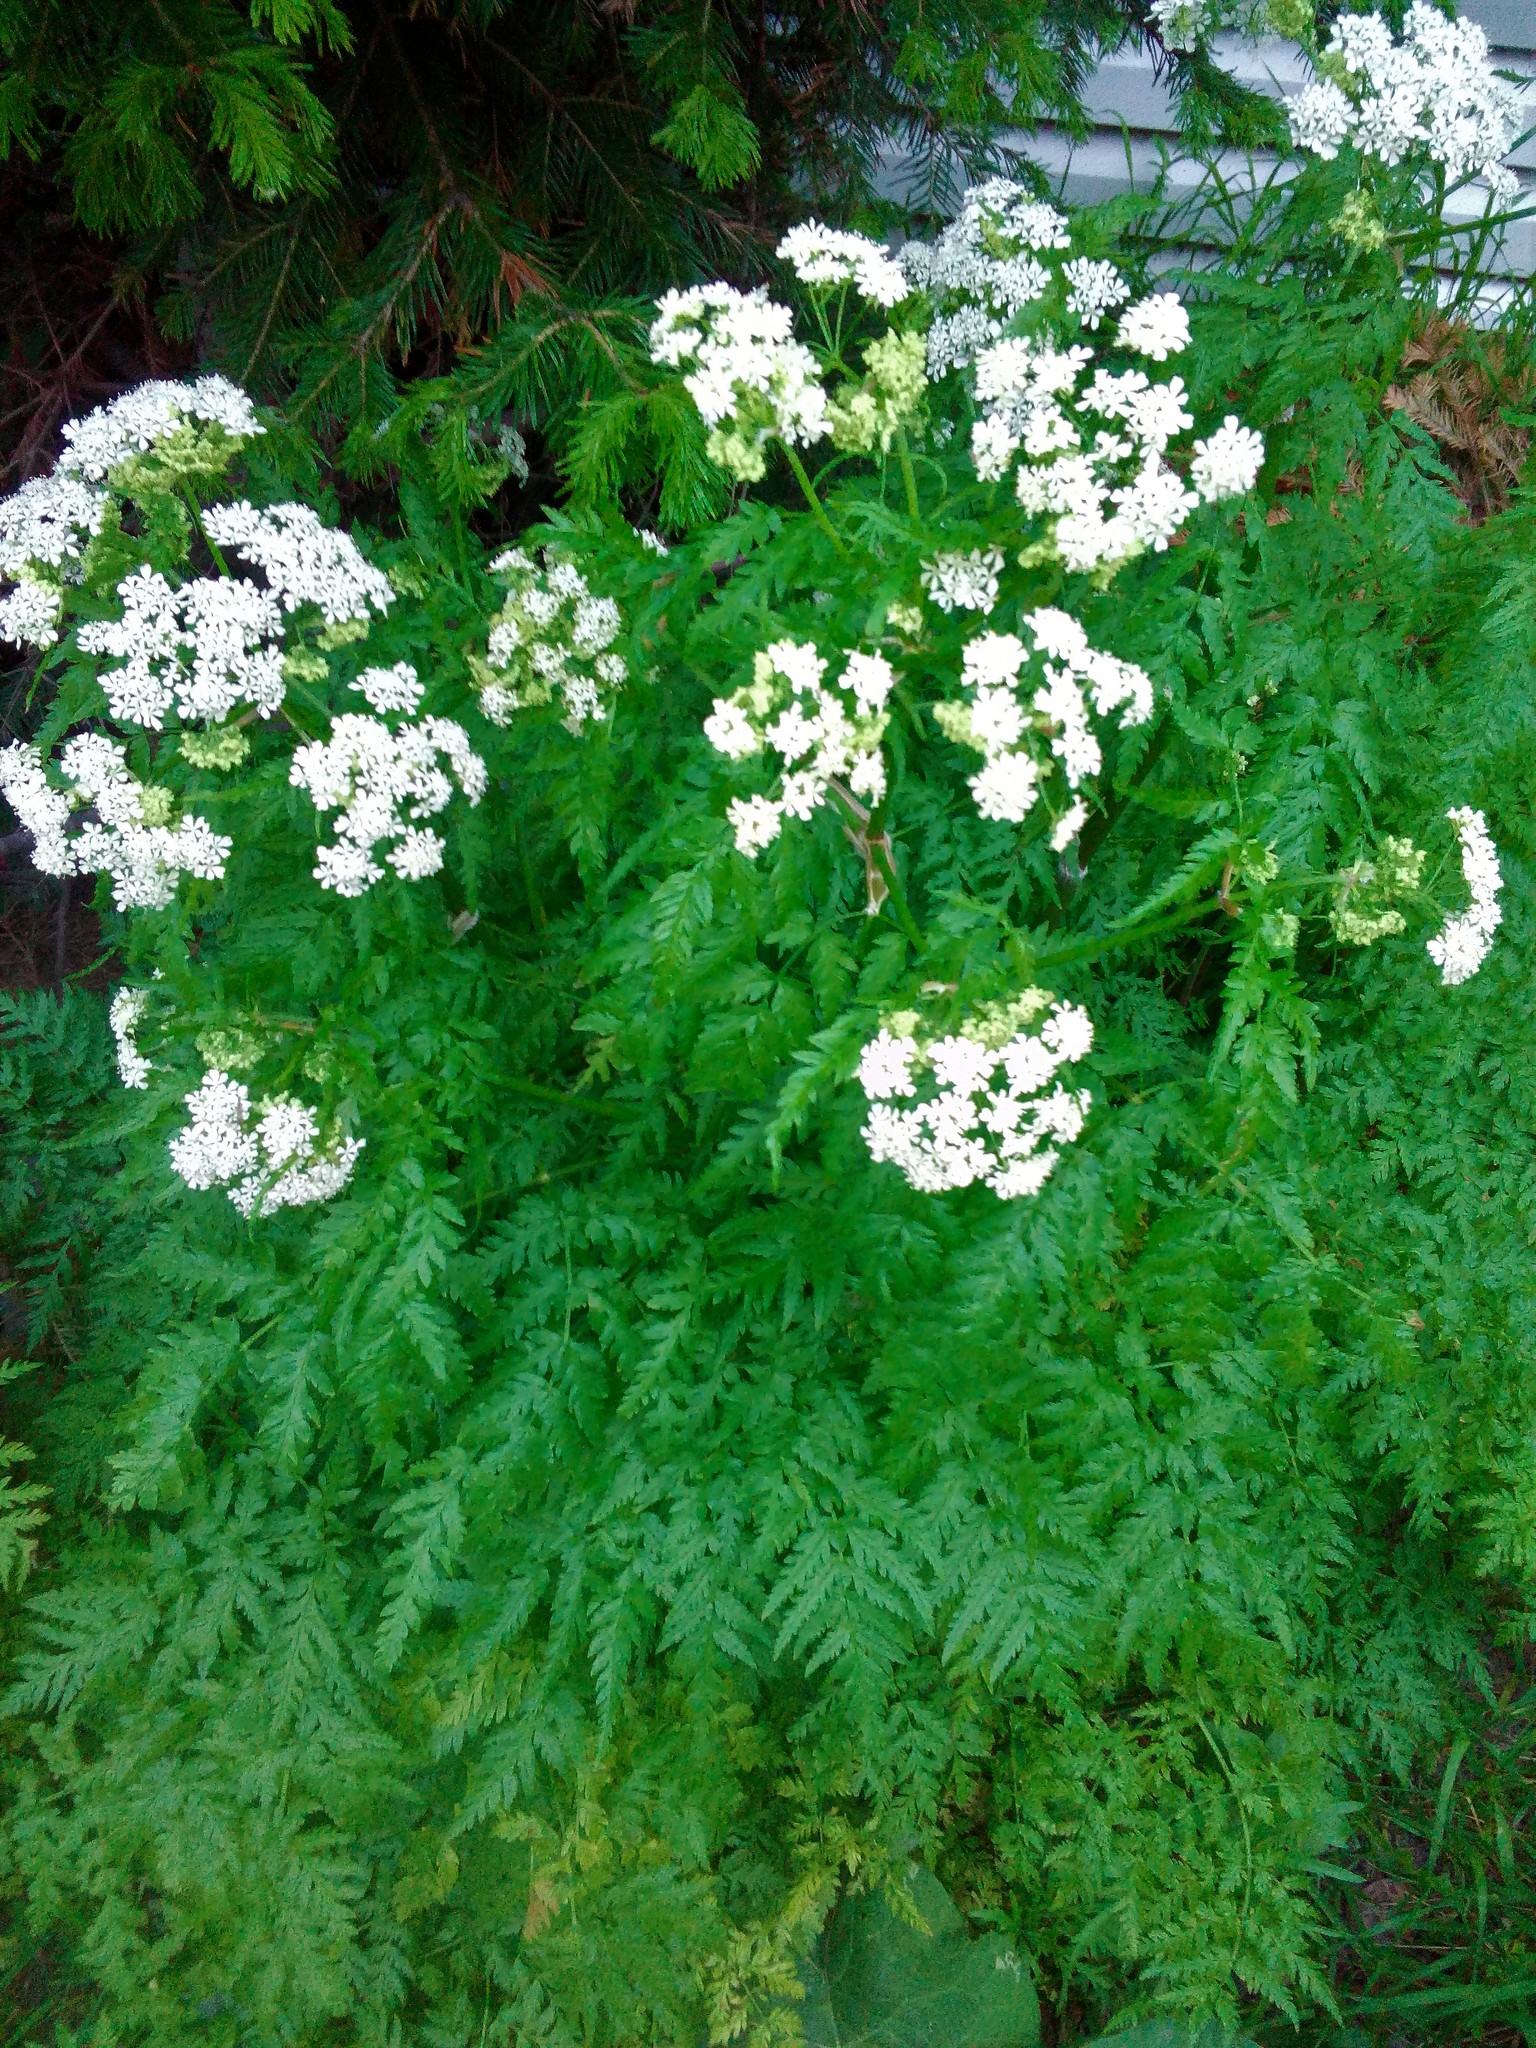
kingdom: Plantae
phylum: Tracheophyta
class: Magnoliopsida
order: Apiales
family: Apiaceae
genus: Anthriscus
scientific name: Anthriscus sylvestris
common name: Cow parsley
